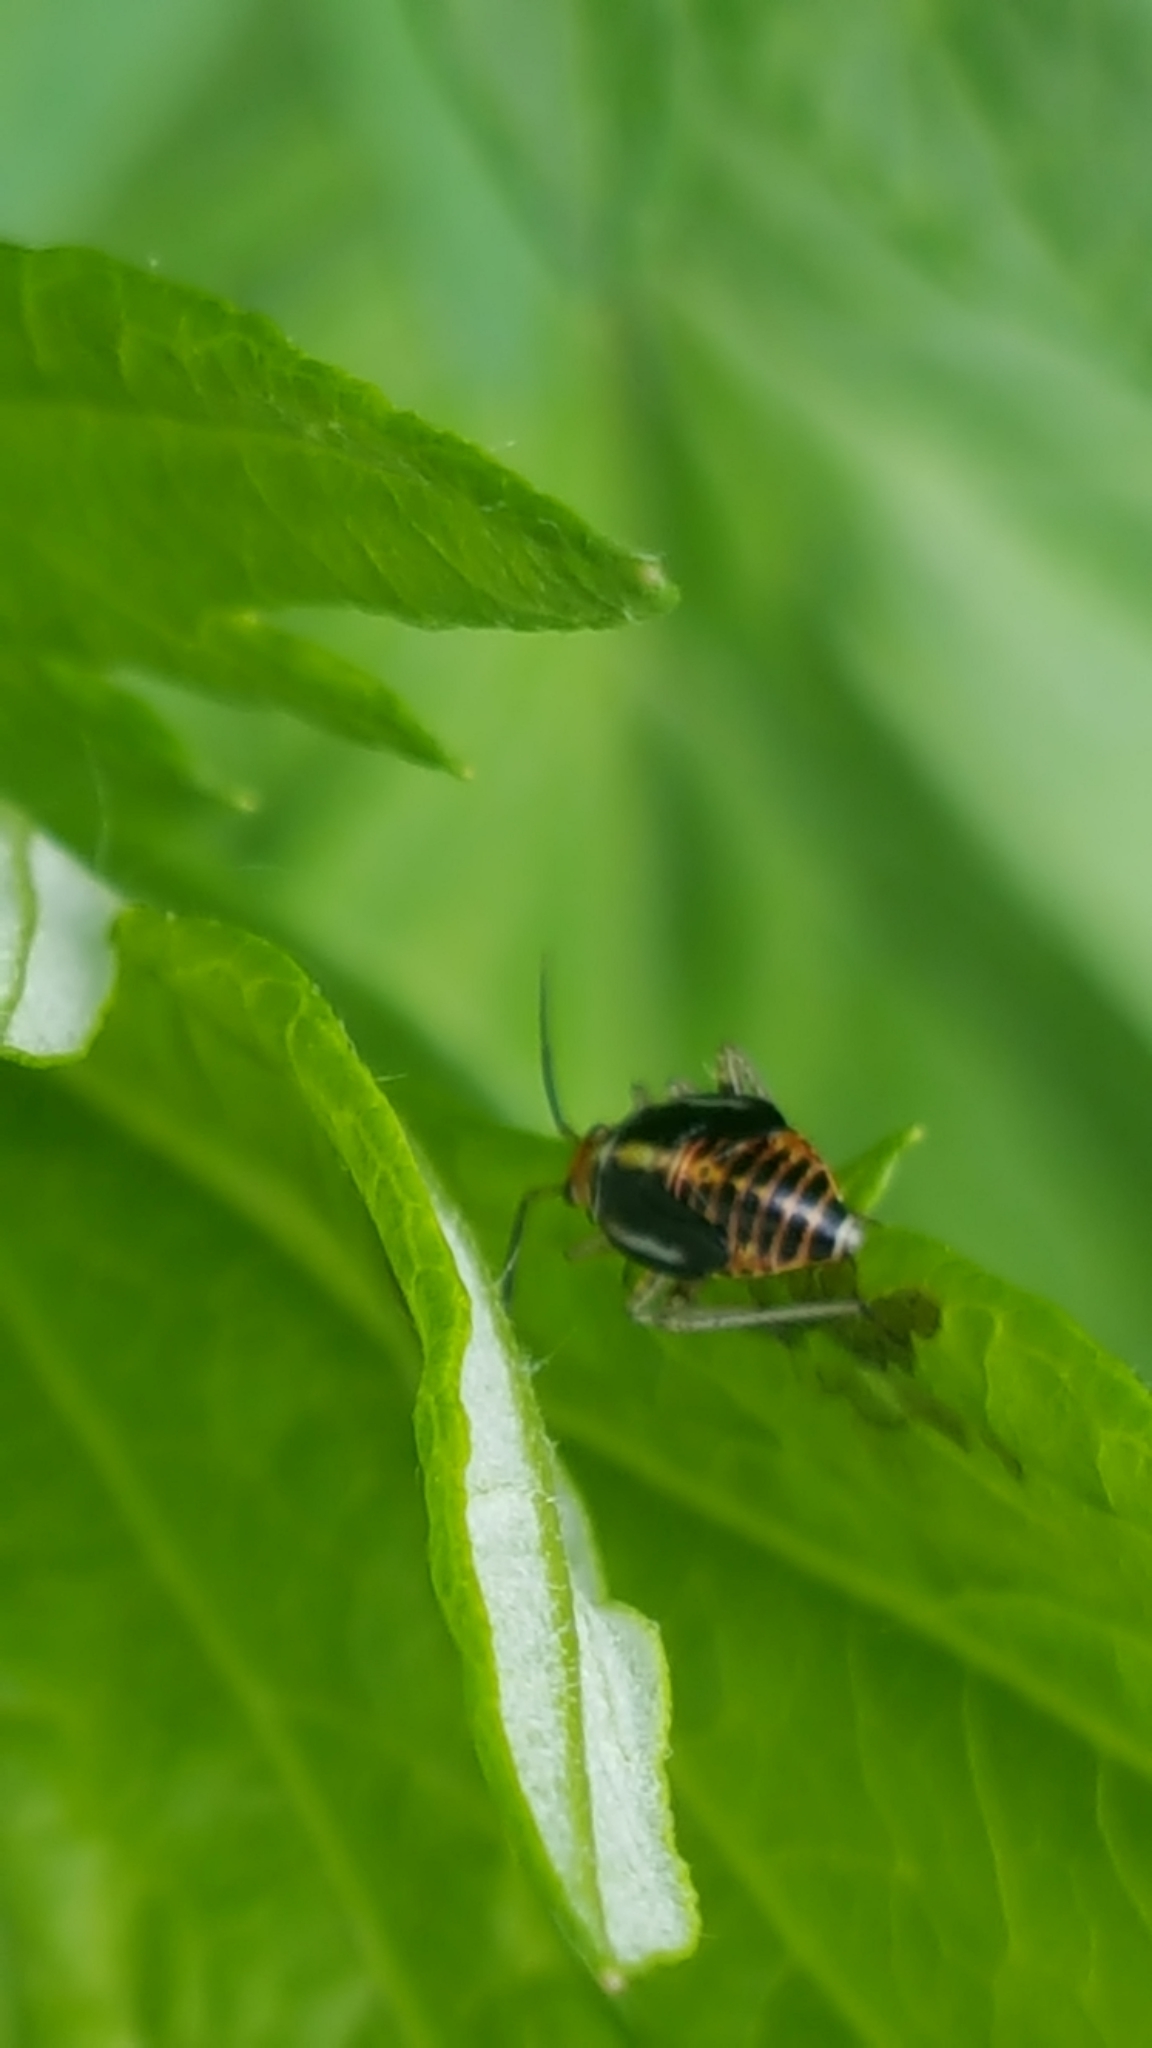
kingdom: Animalia
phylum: Arthropoda
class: Insecta
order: Hemiptera
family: Miridae
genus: Poecilocapsus
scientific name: Poecilocapsus lineatus
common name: Four-lined plant bug
